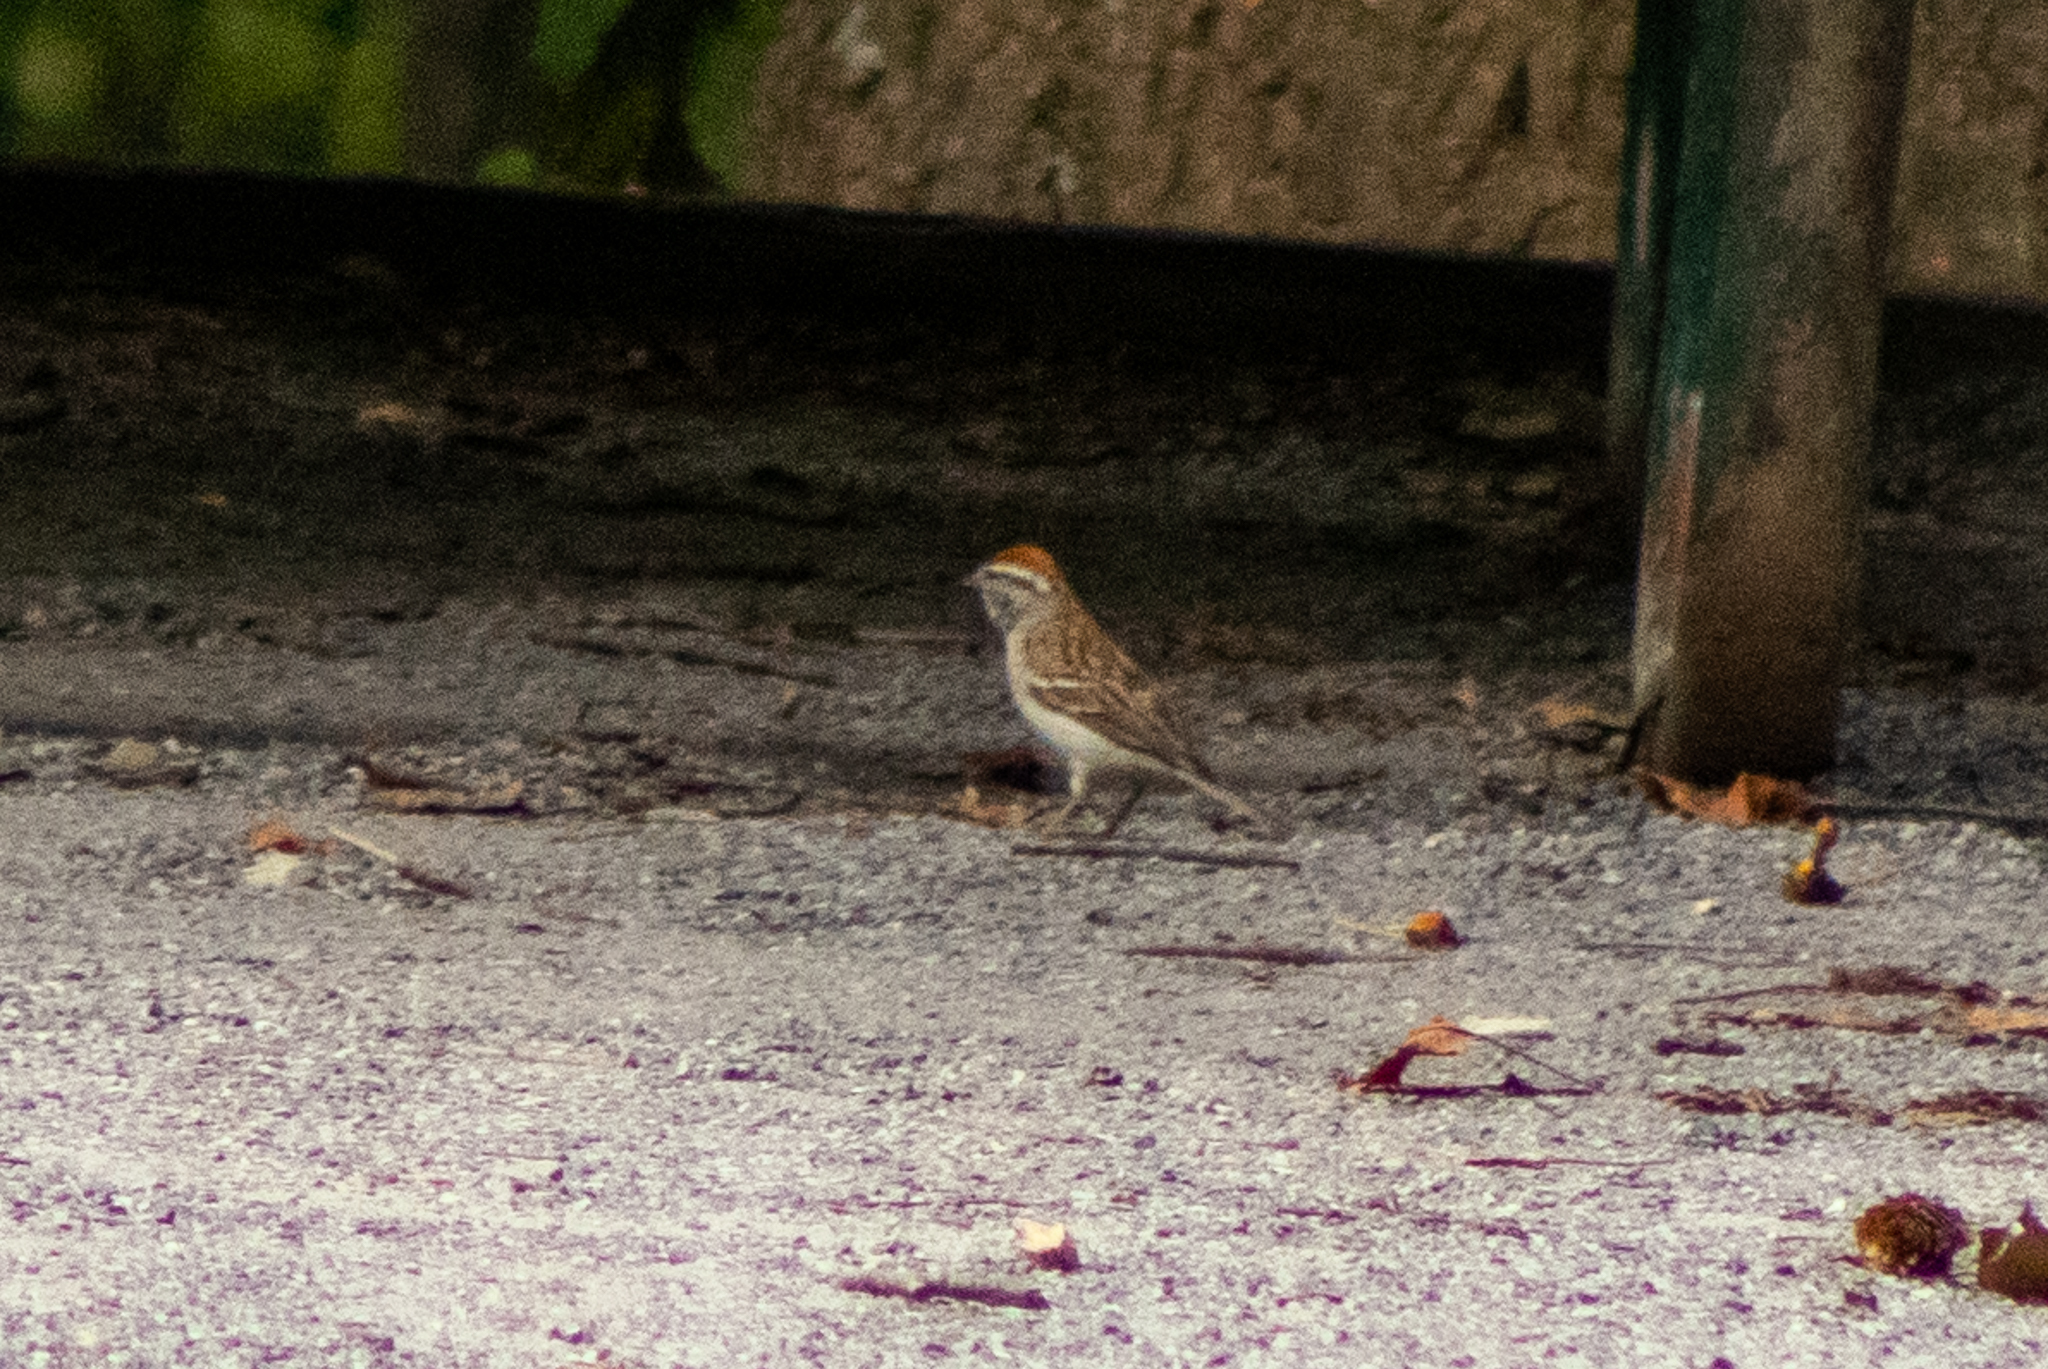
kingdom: Animalia
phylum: Chordata
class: Aves
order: Passeriformes
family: Passerellidae
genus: Spizella
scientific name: Spizella passerina
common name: Chipping sparrow
